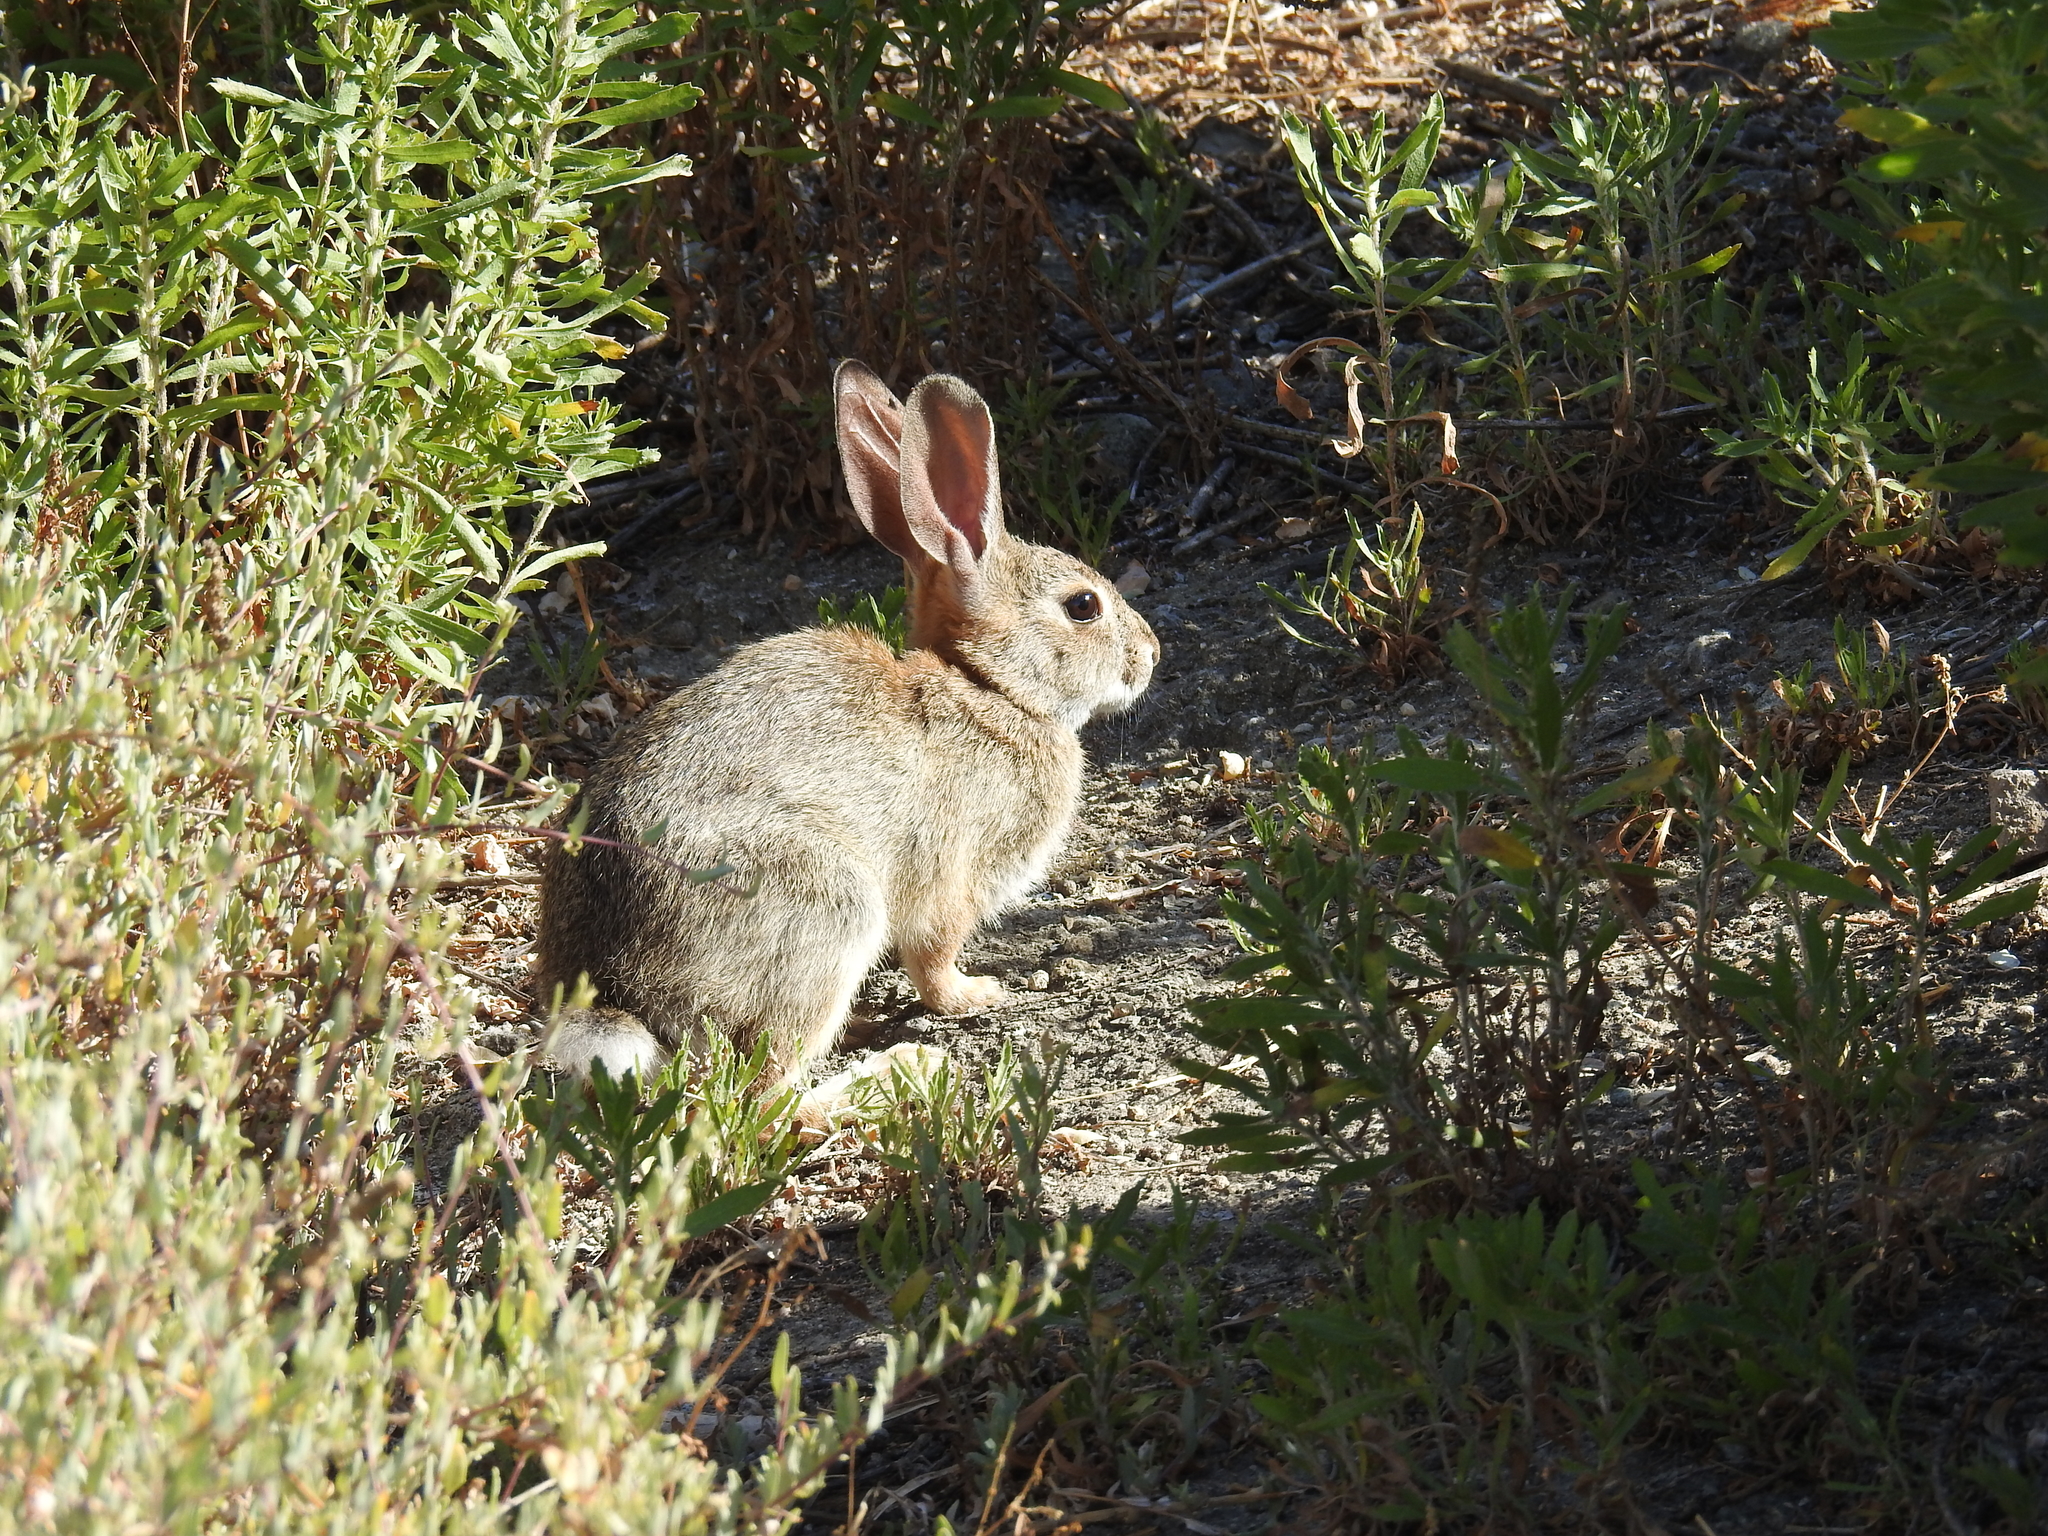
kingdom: Animalia
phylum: Chordata
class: Mammalia
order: Lagomorpha
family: Leporidae
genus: Sylvilagus
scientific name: Sylvilagus audubonii
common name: Desert cottontail
